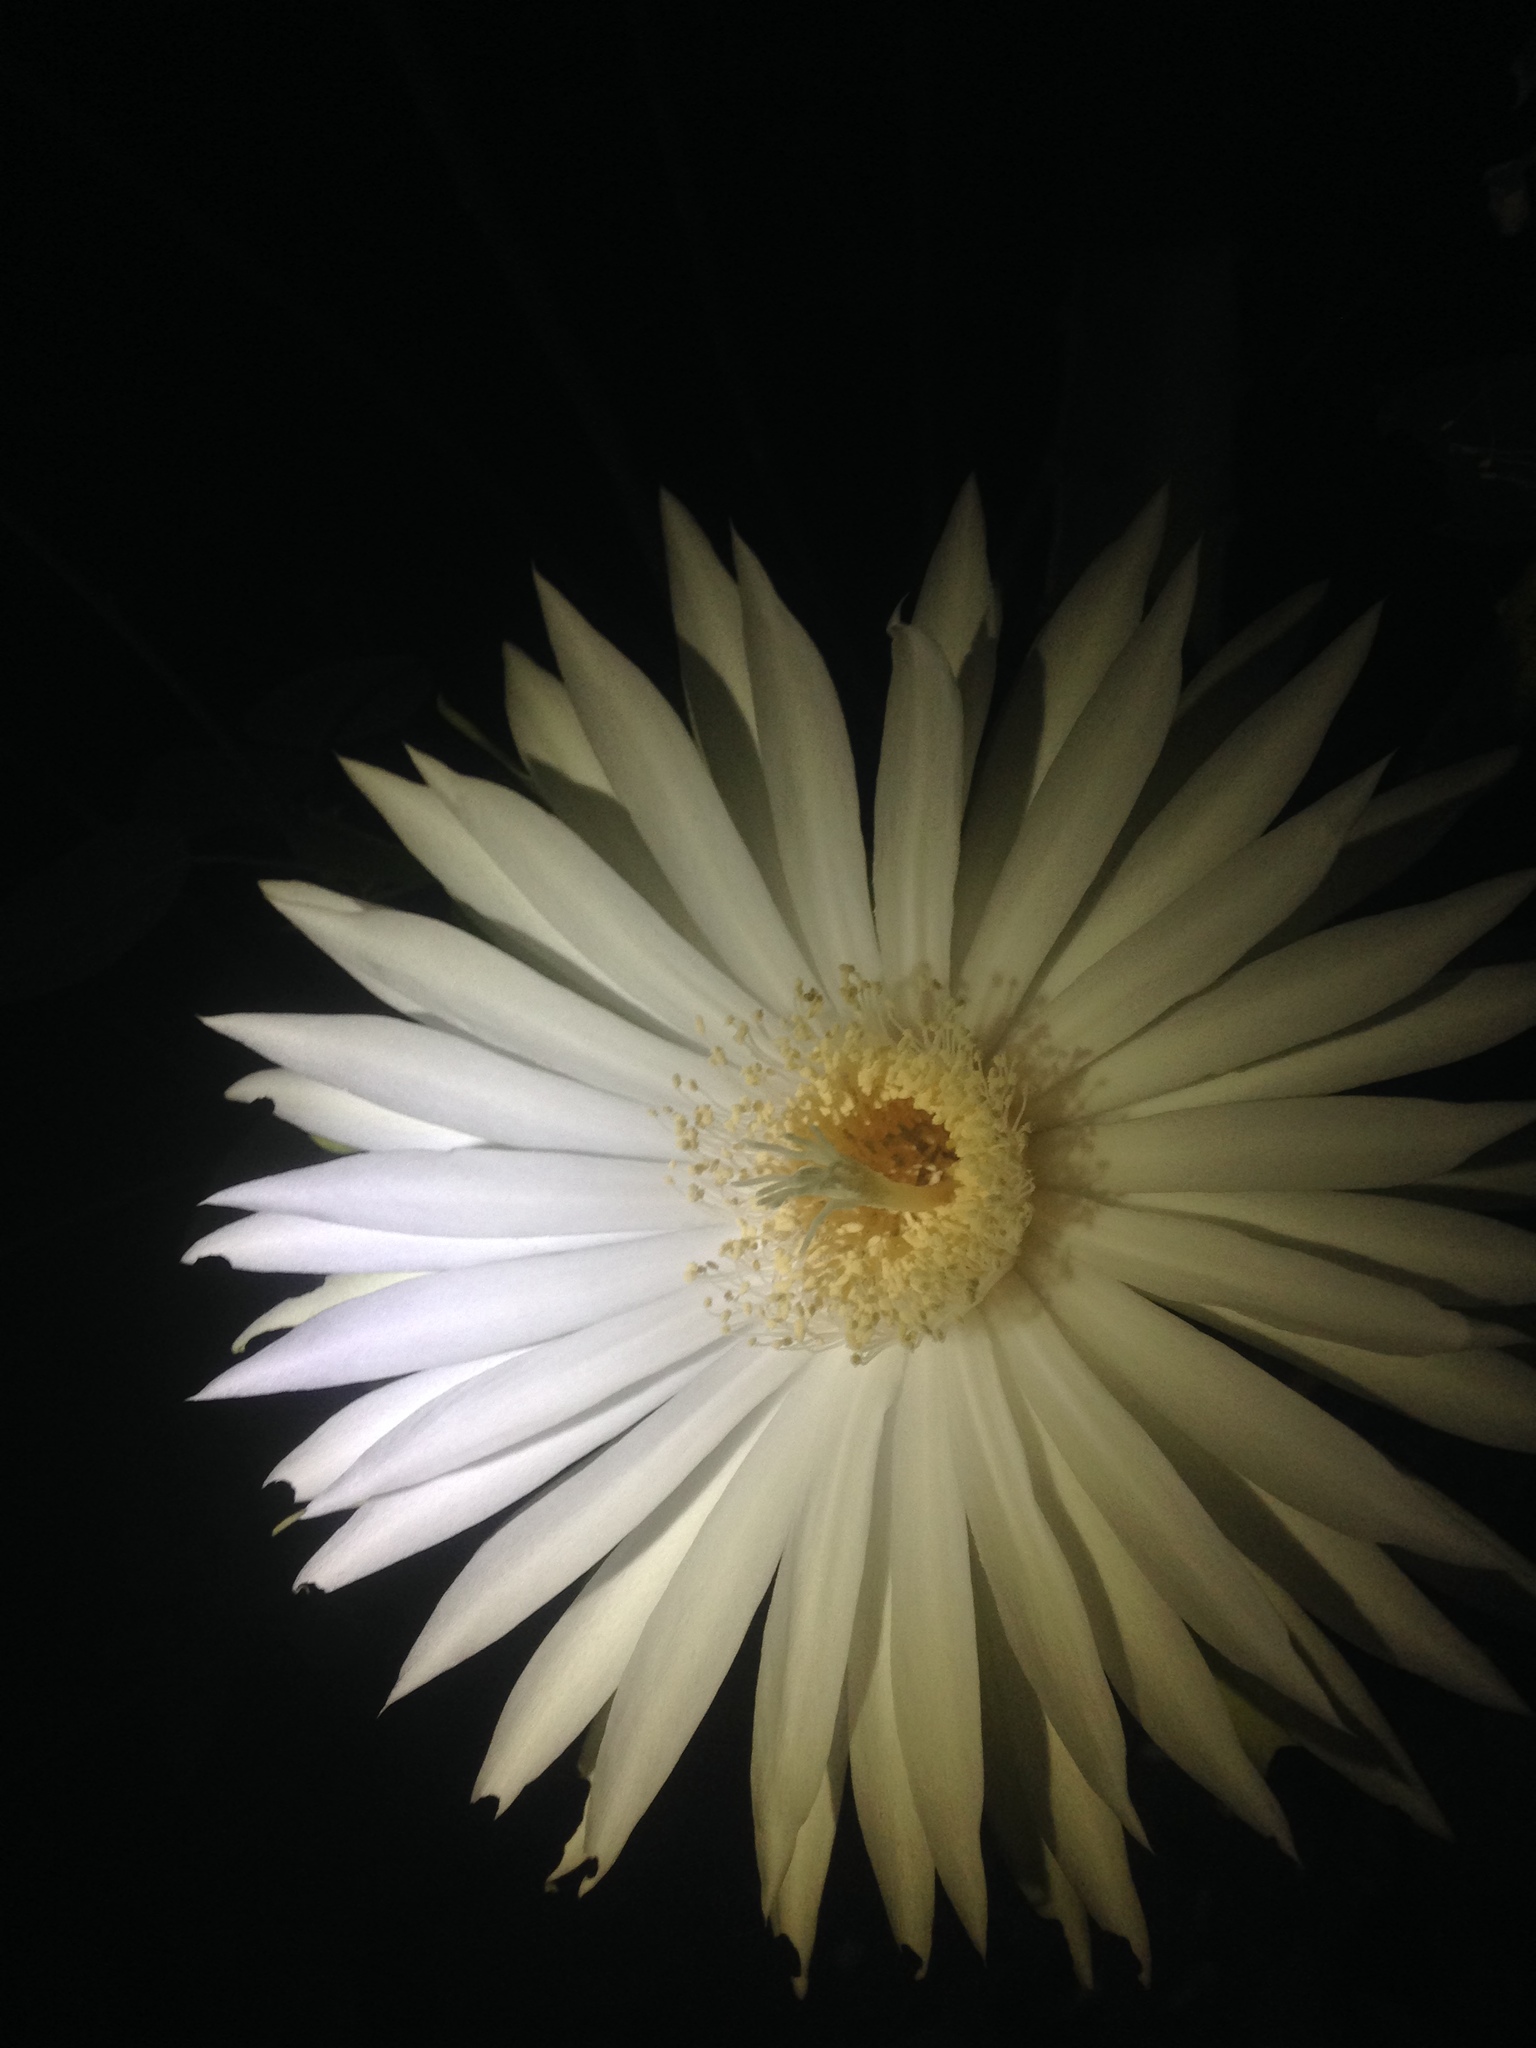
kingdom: Plantae
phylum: Tracheophyta
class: Magnoliopsida
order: Caryophyllales
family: Cactaceae
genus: Acanthocereus
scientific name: Acanthocereus tetragonus
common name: Triangle cactus
